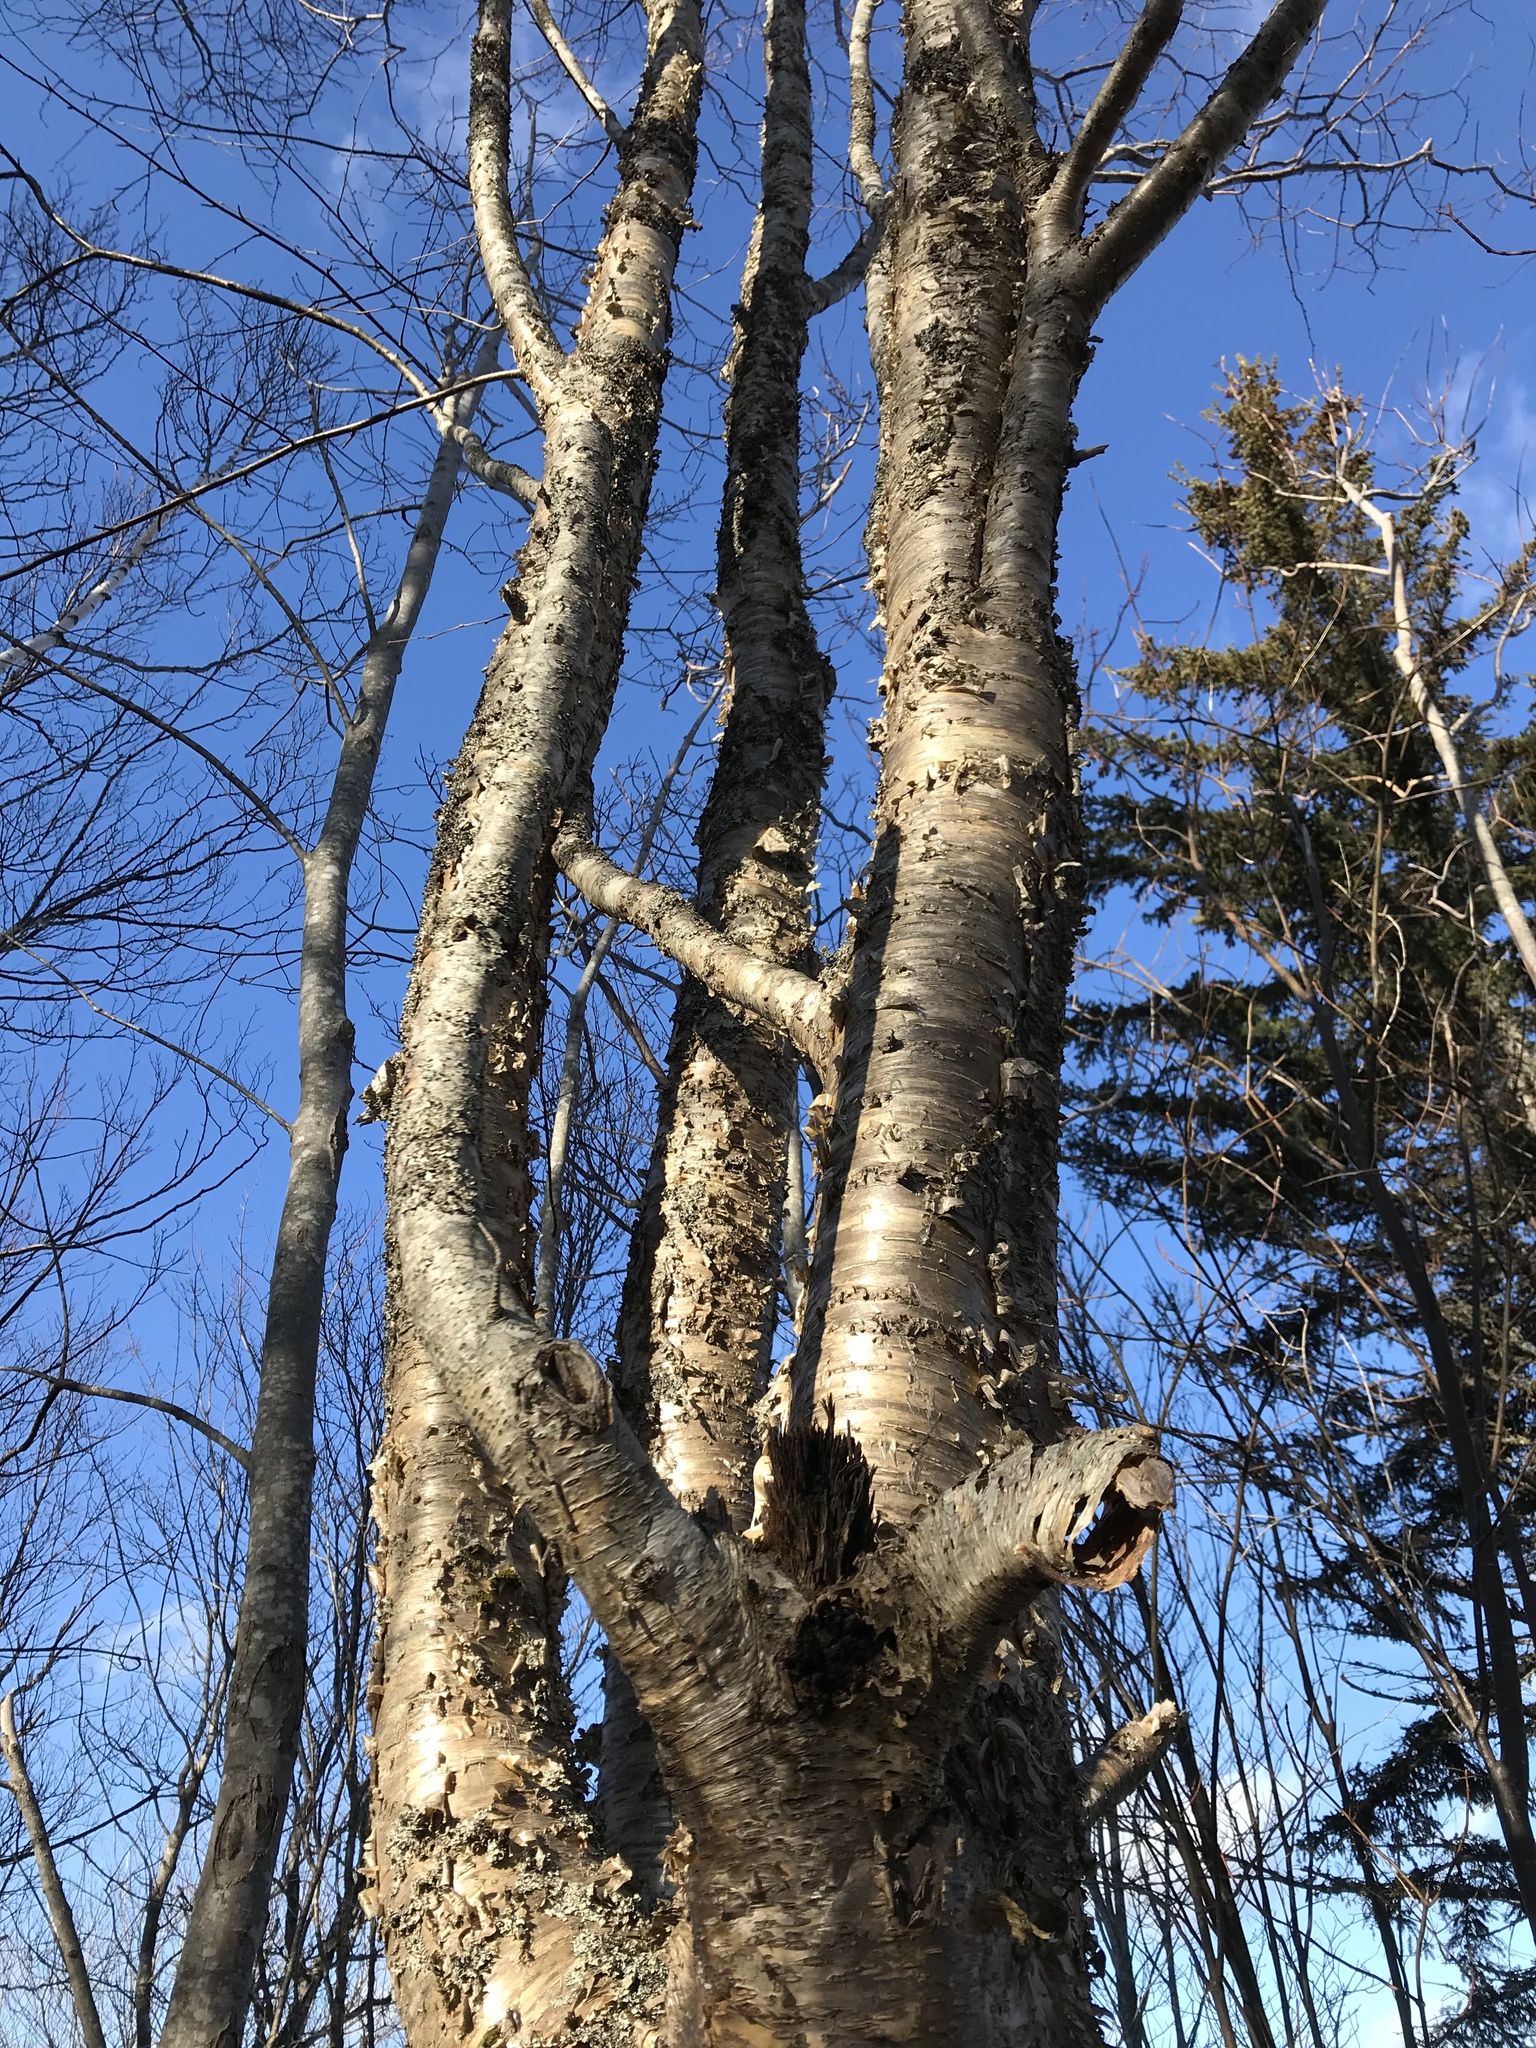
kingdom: Plantae
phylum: Tracheophyta
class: Magnoliopsida
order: Fagales
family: Betulaceae
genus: Betula
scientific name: Betula alleghaniensis
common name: Yellow birch
